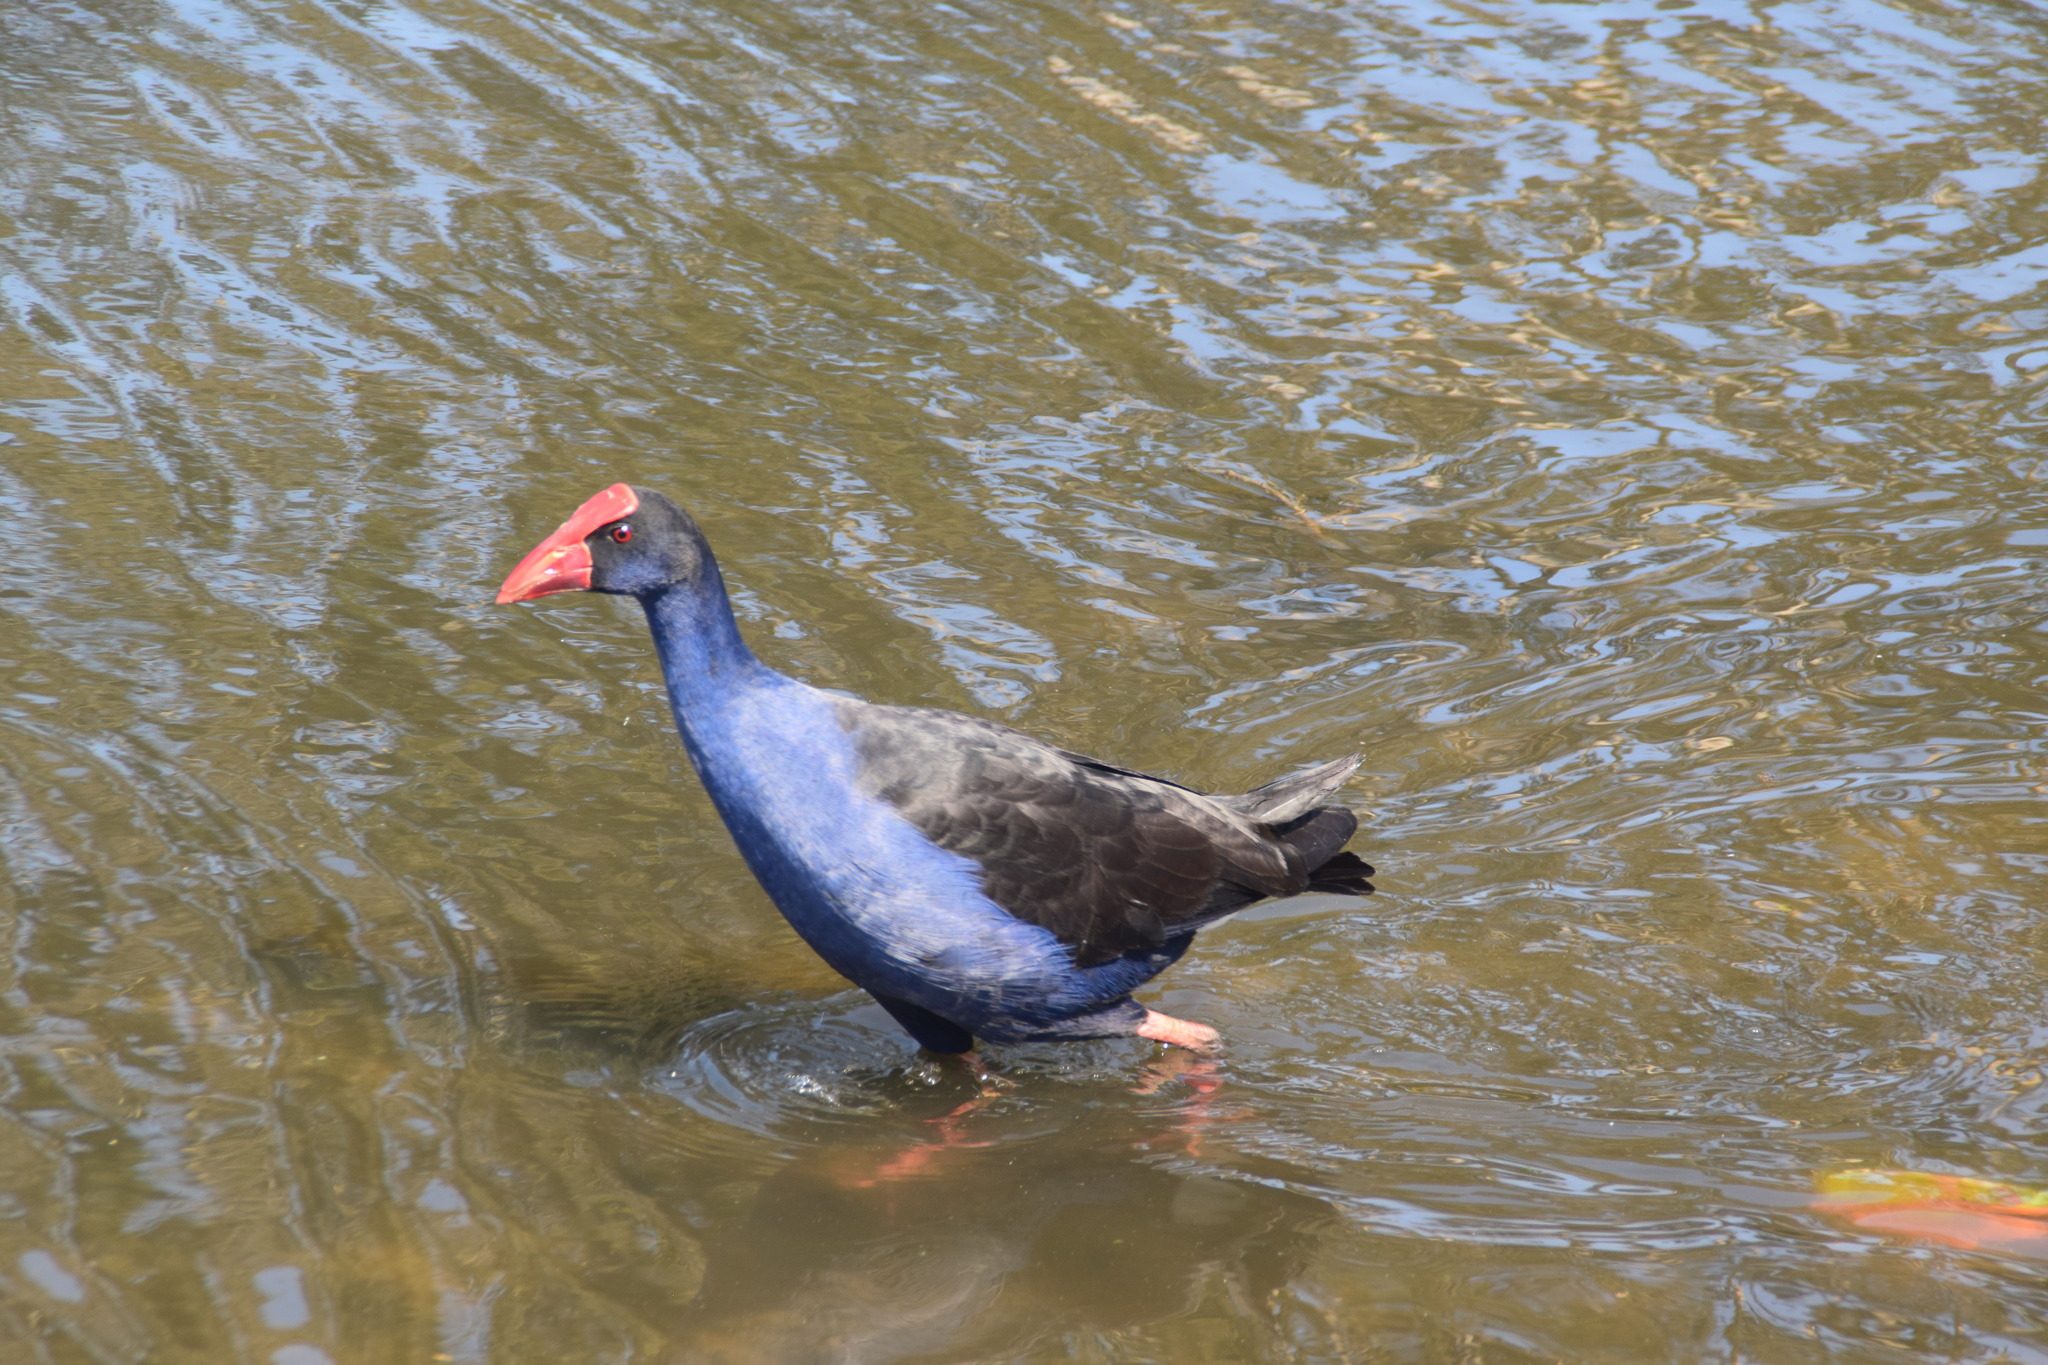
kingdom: Animalia
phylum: Chordata
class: Aves
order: Gruiformes
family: Rallidae
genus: Porphyrio
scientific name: Porphyrio melanotus
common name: Australasian swamphen
